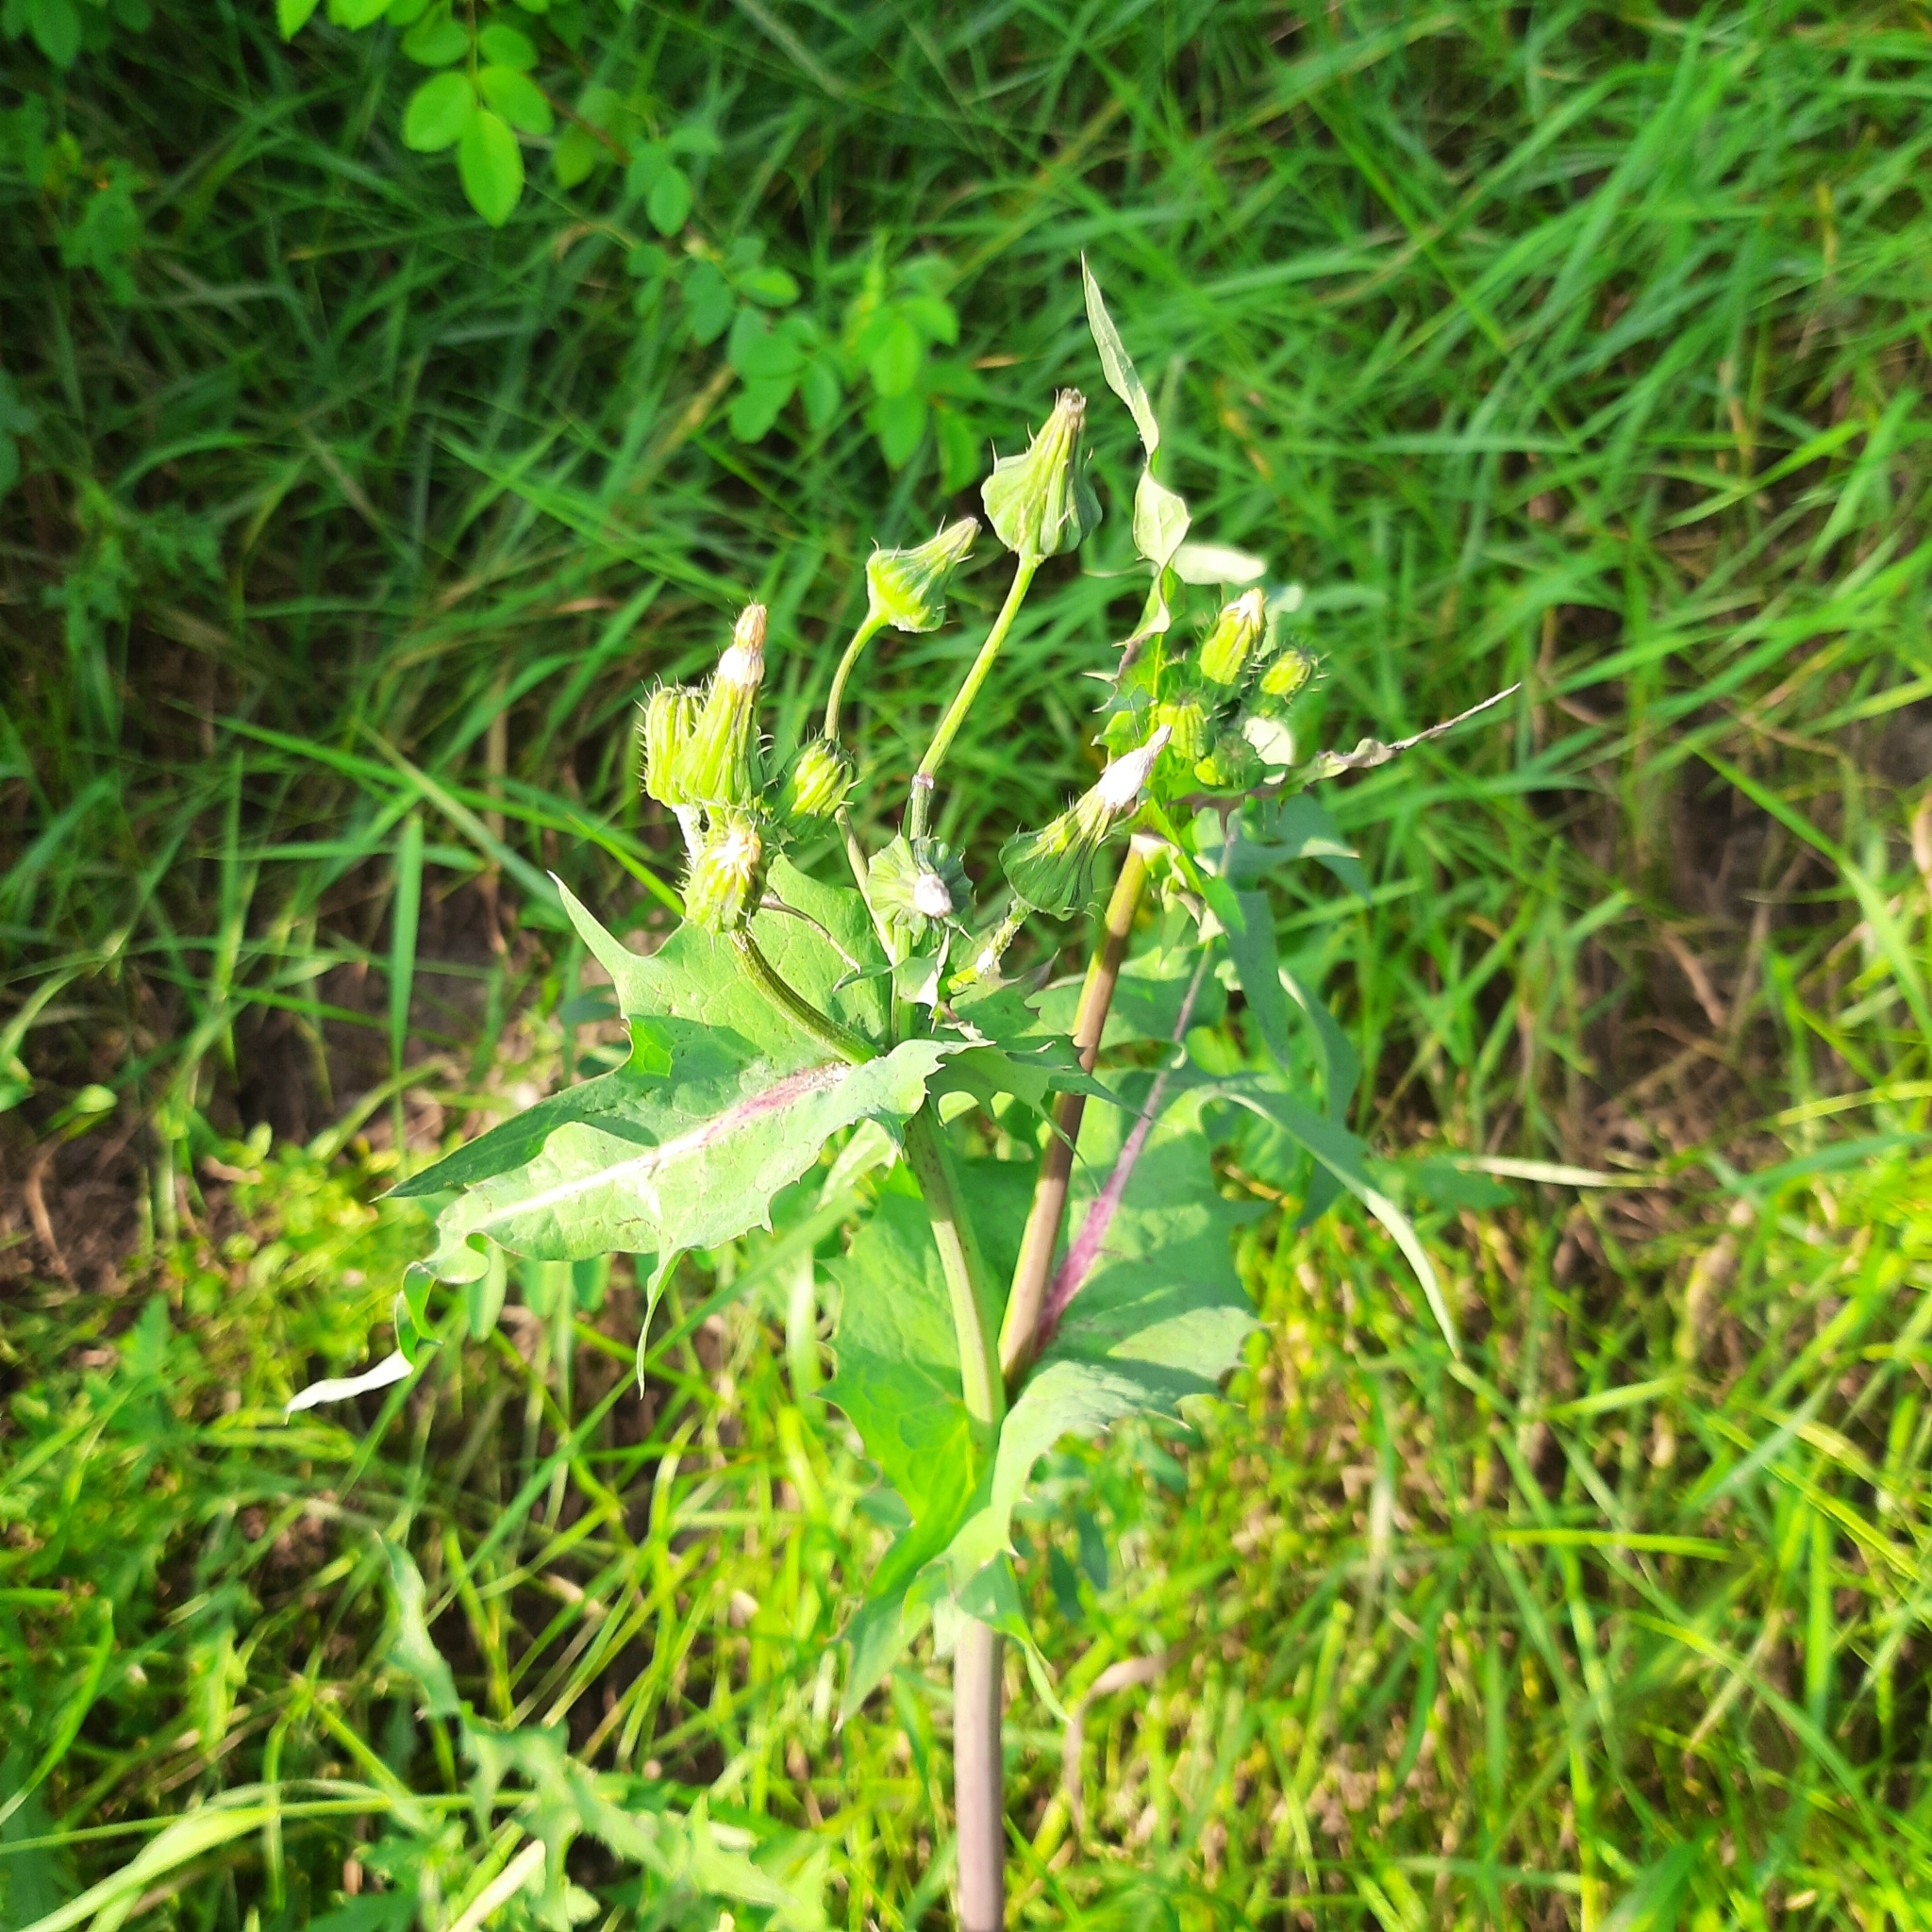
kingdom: Plantae
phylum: Tracheophyta
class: Magnoliopsida
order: Asterales
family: Asteraceae
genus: Sonchus
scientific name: Sonchus oleraceus
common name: Common sowthistle
